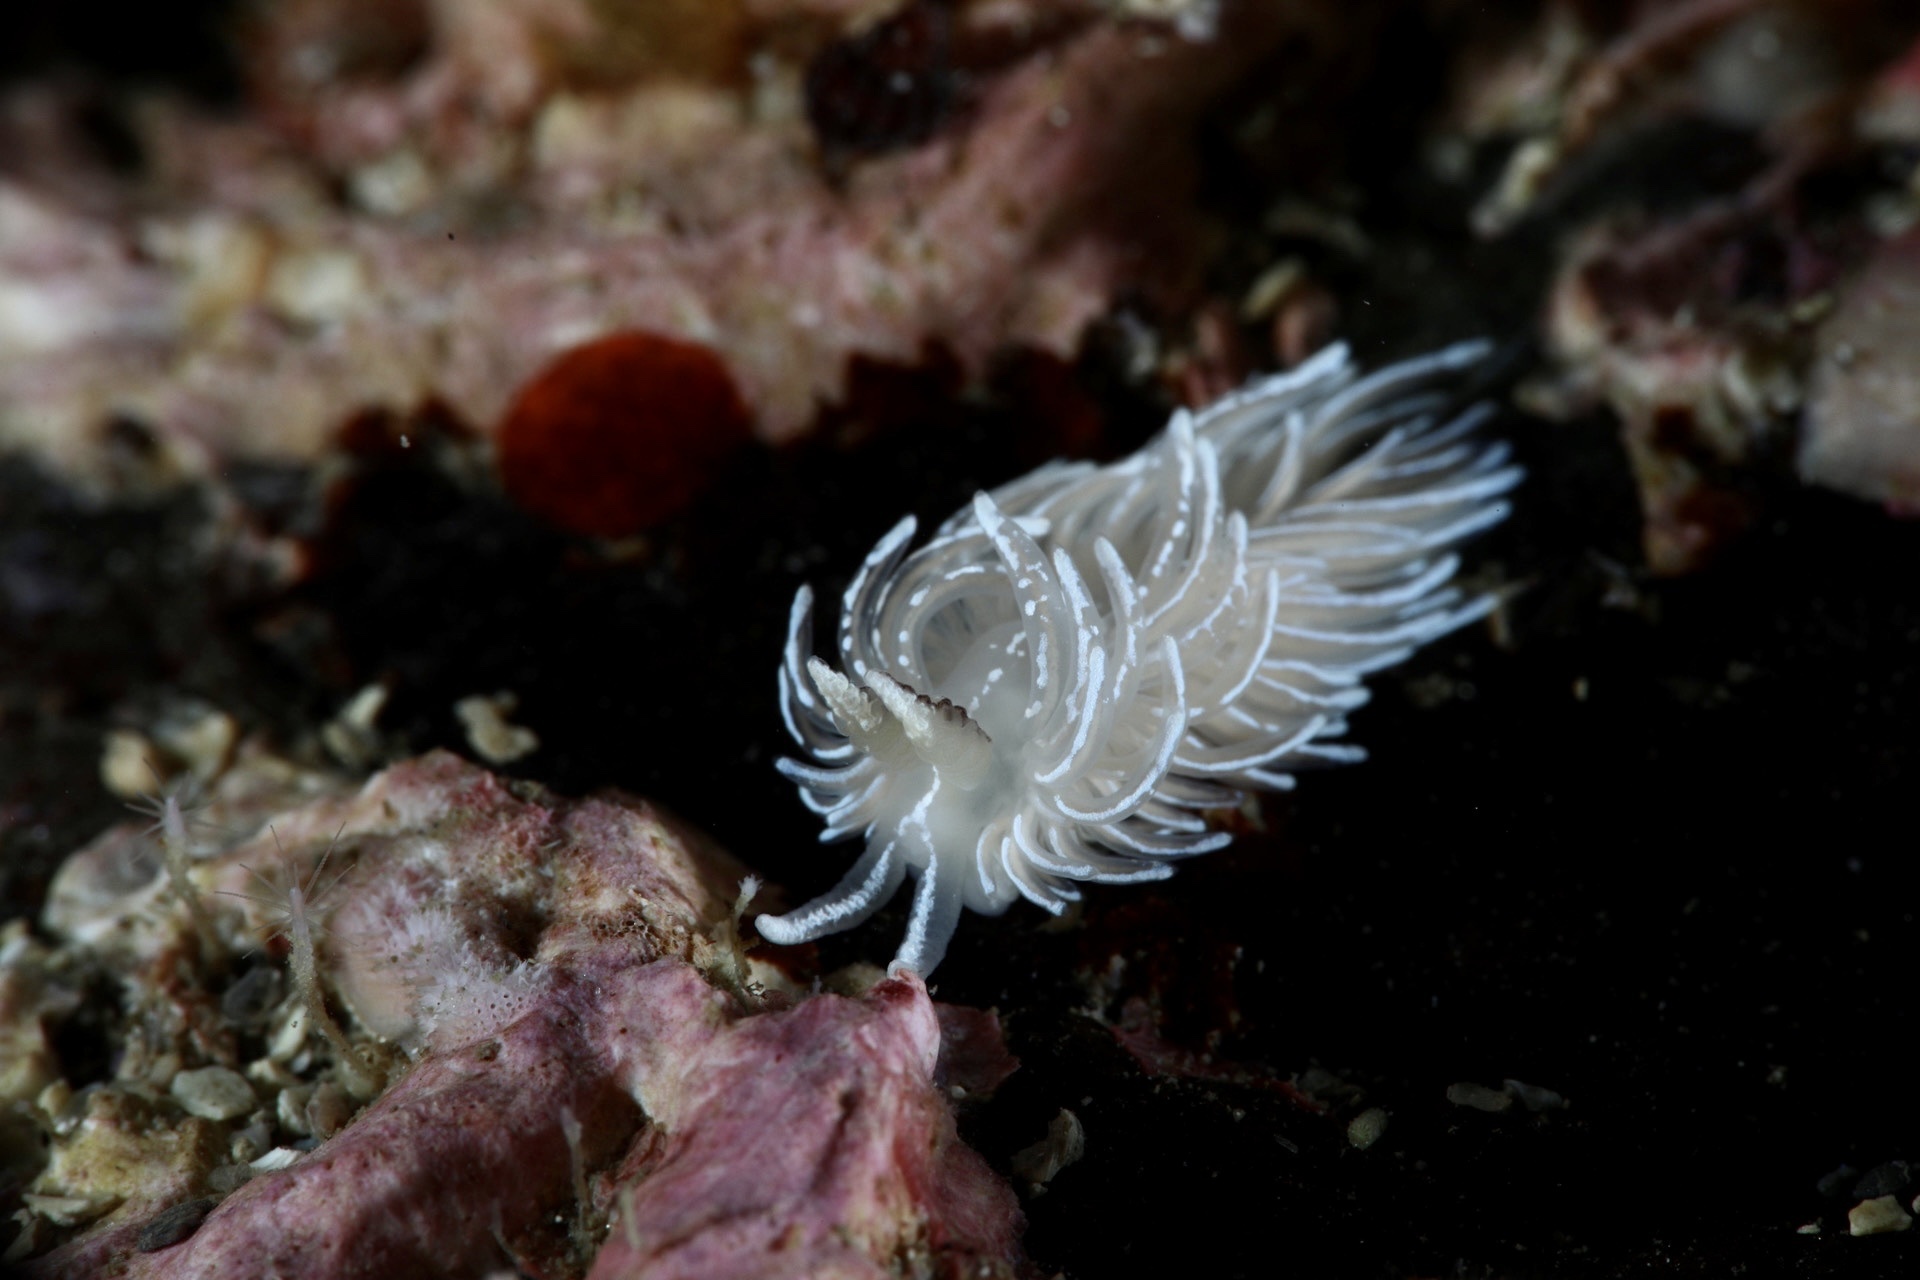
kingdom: Animalia
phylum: Mollusca
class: Gastropoda
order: Nudibranchia
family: Facelinidae
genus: Favorinus
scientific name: Favorinus blianus
